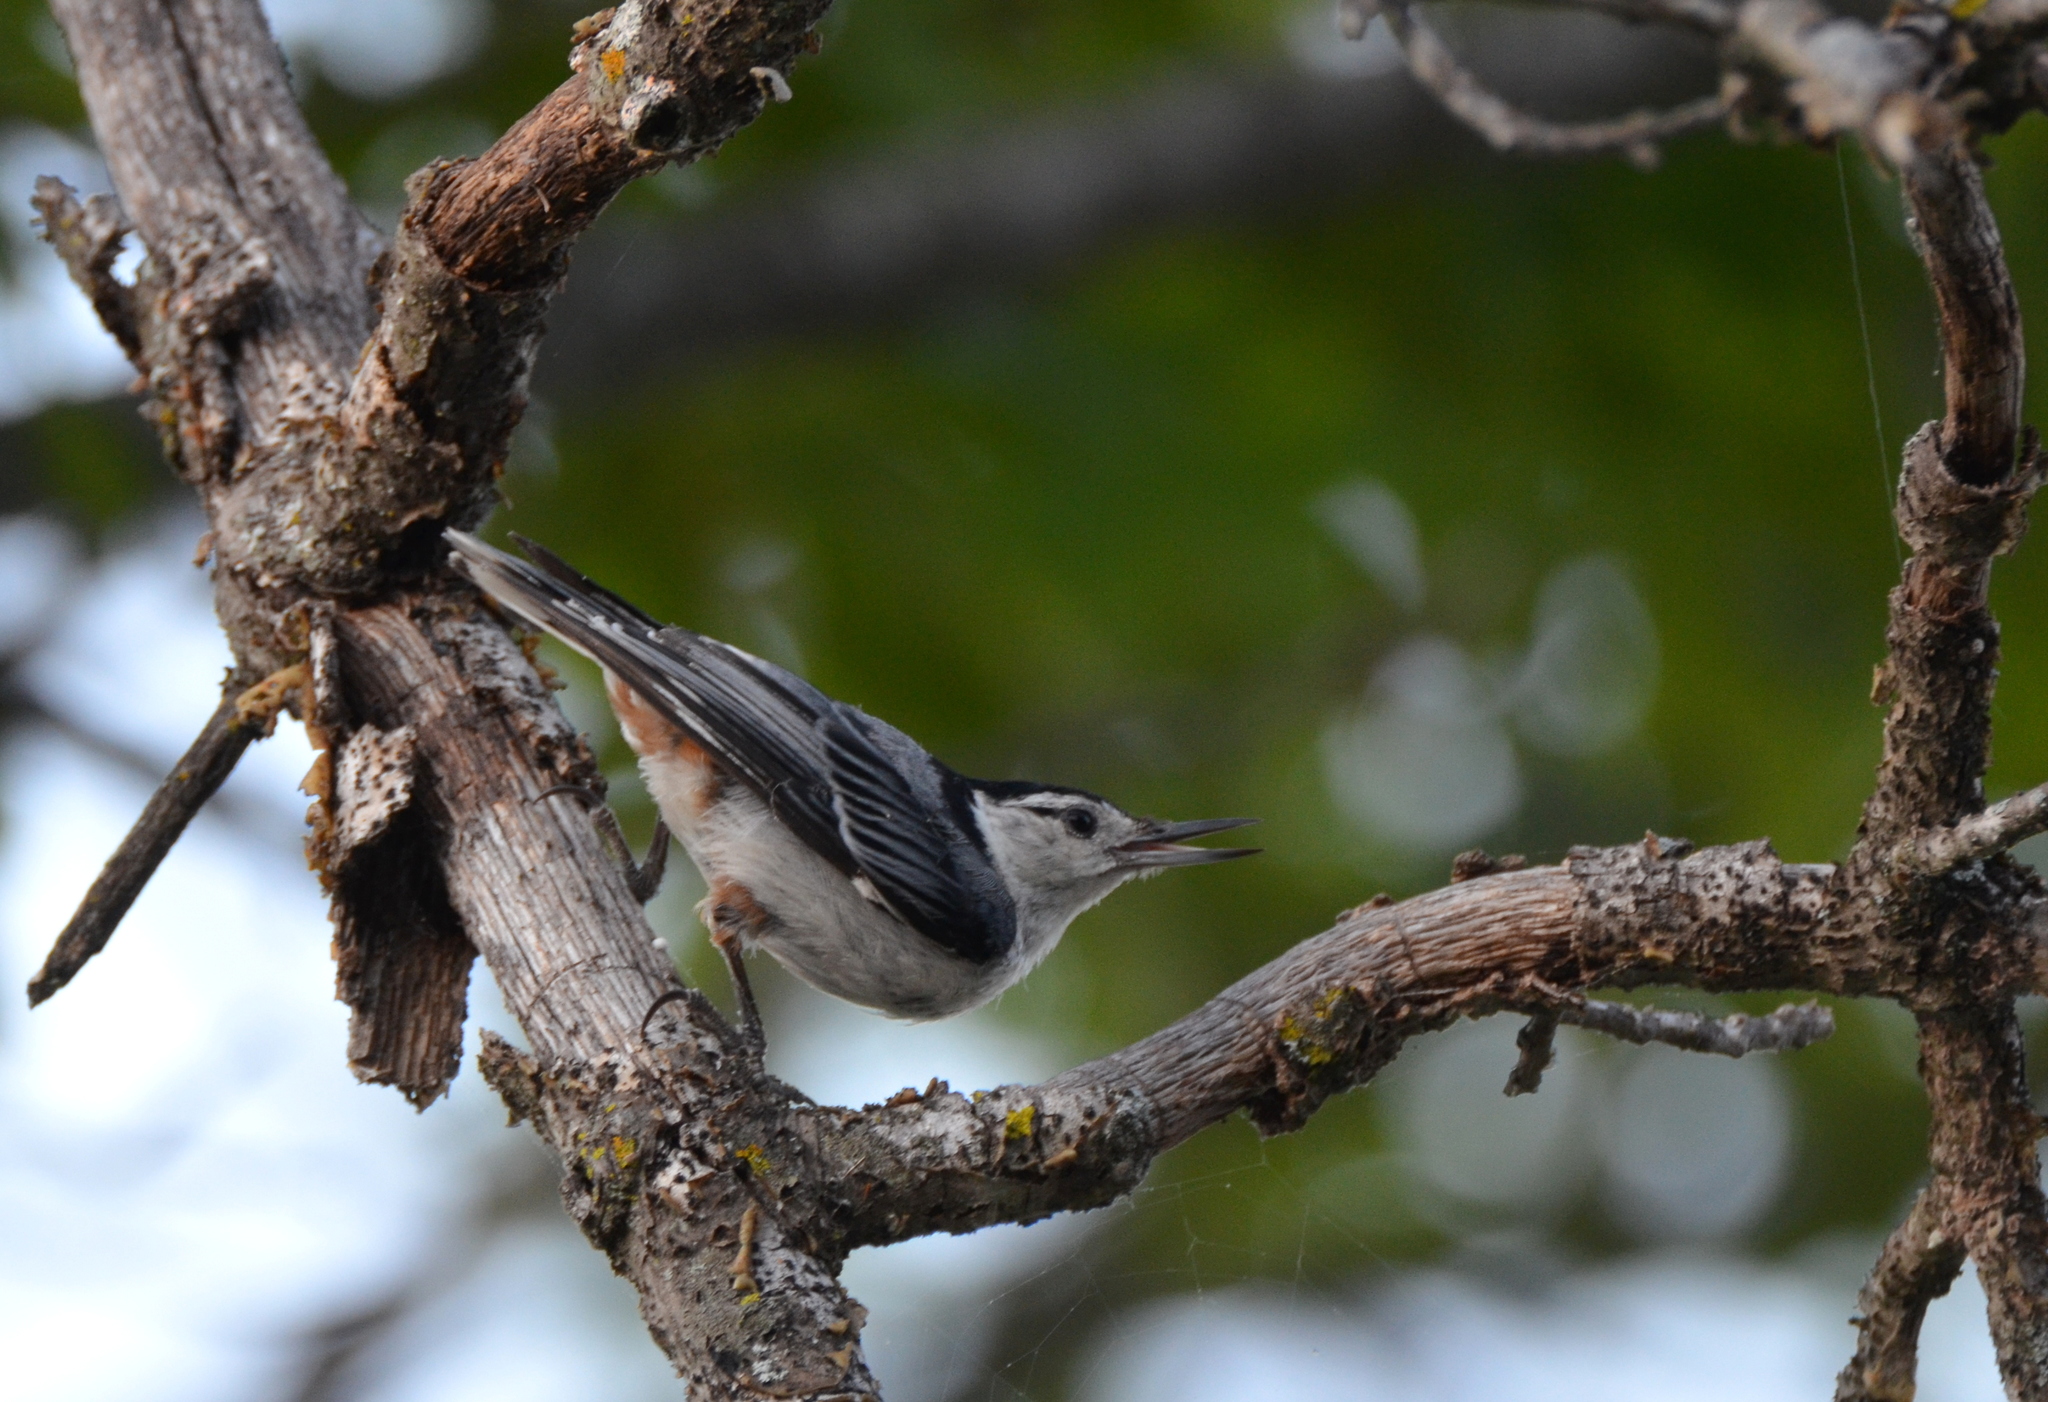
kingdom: Animalia
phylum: Chordata
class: Aves
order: Passeriformes
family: Sittidae
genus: Sitta
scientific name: Sitta carolinensis
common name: White-breasted nuthatch
